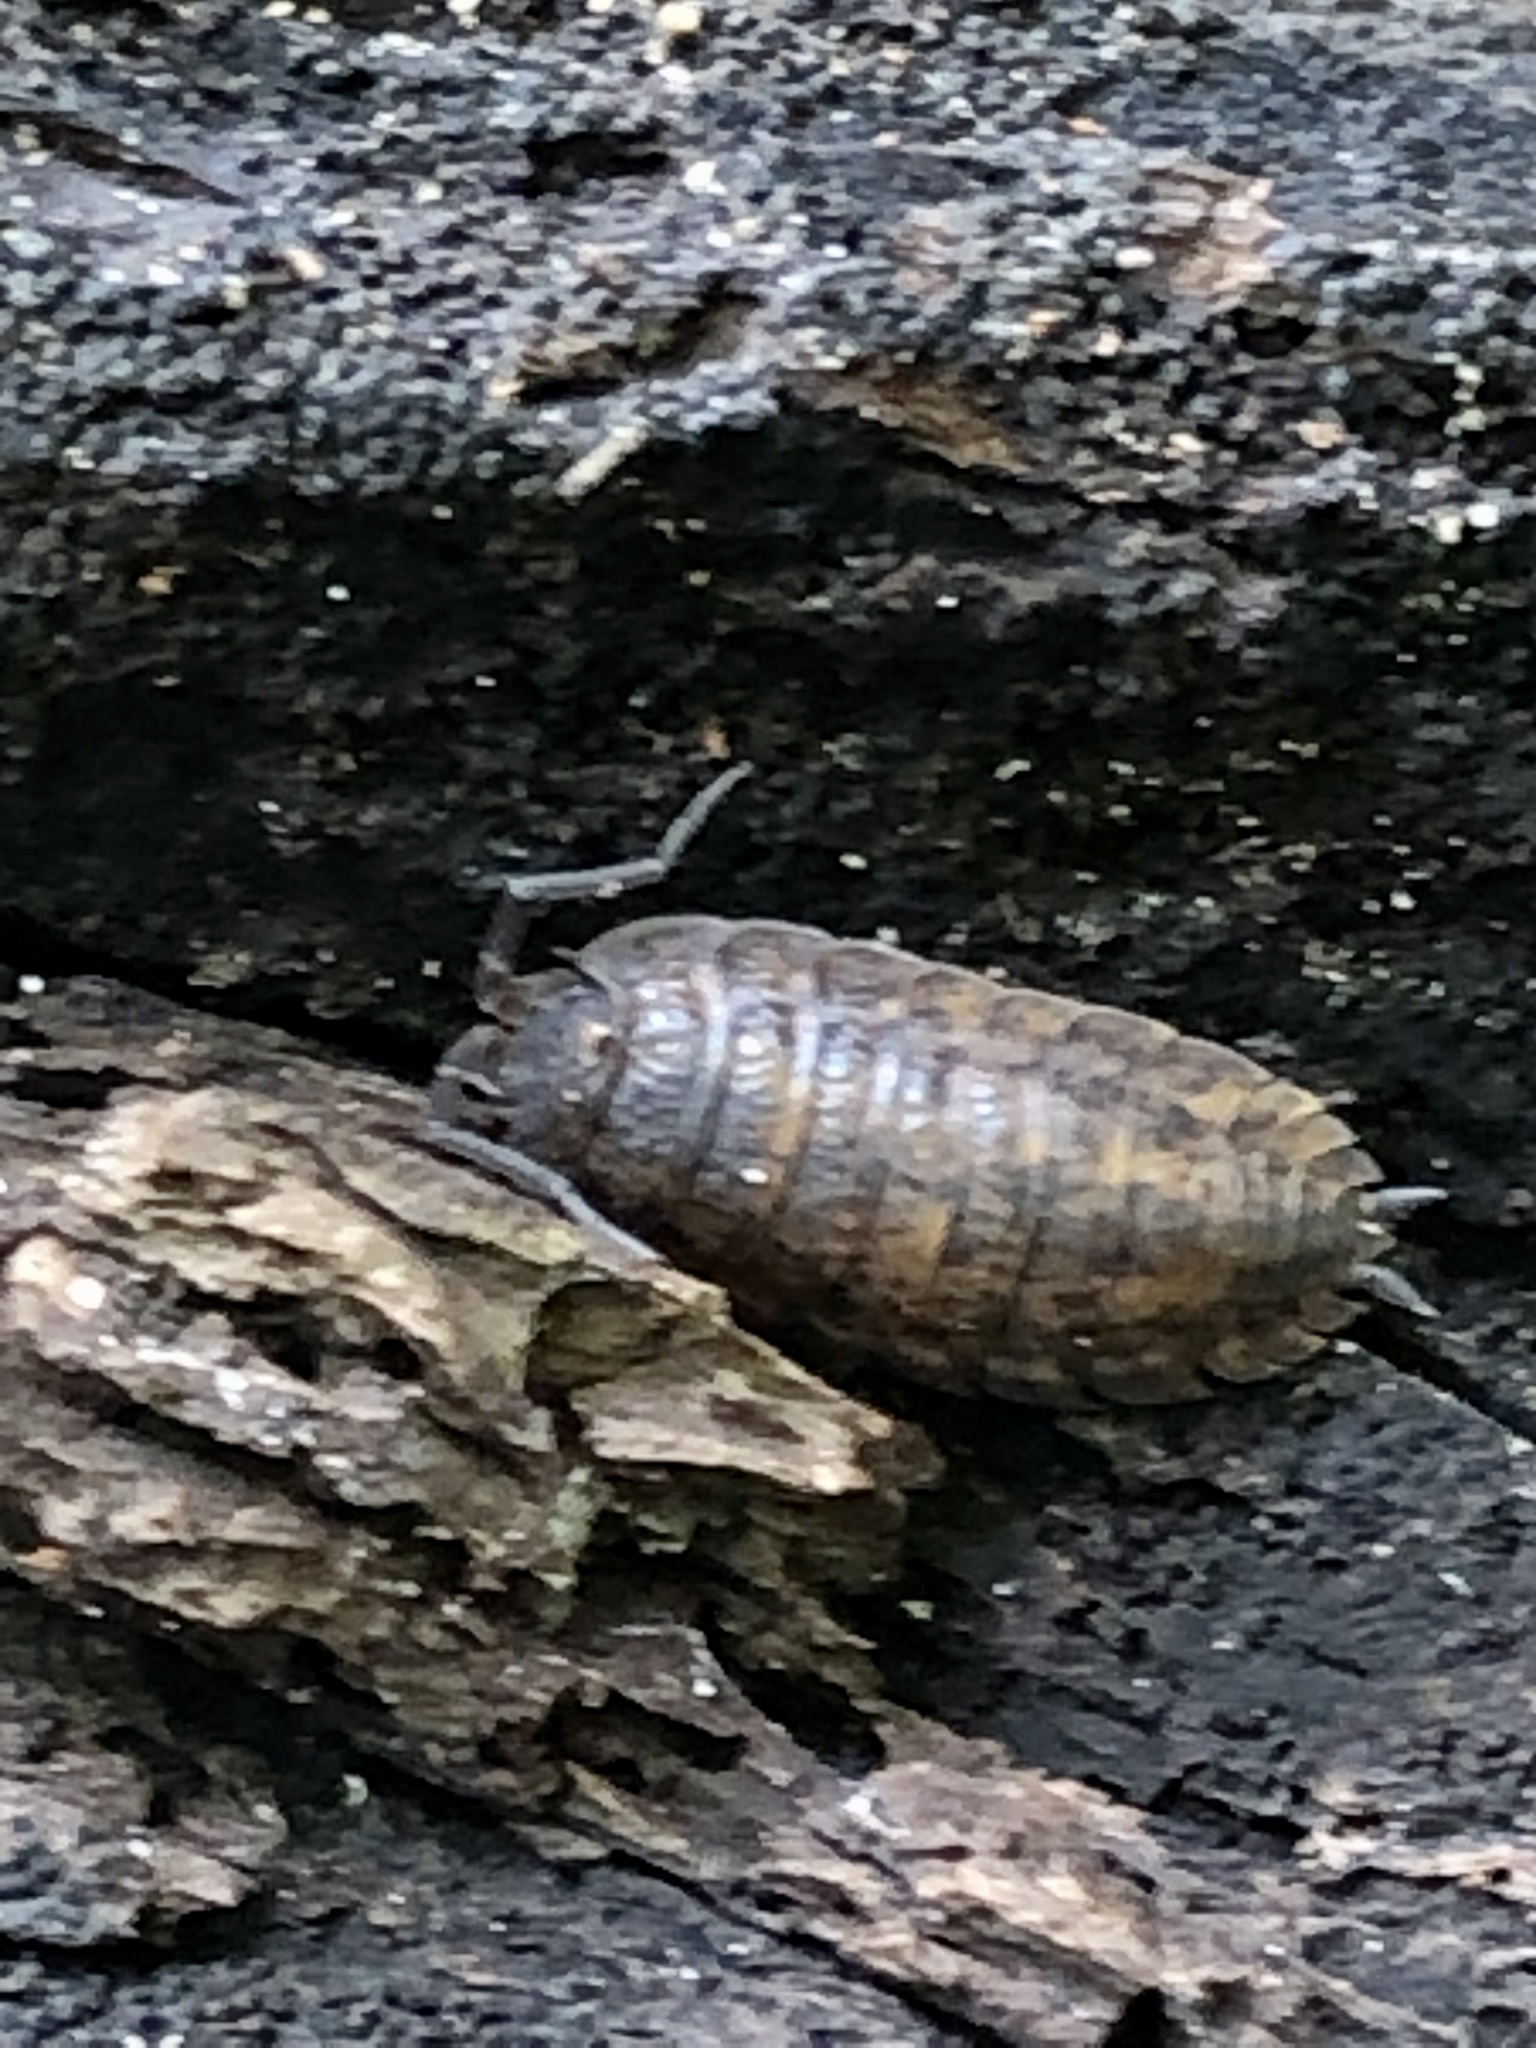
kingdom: Animalia
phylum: Arthropoda
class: Malacostraca
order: Isopoda
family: Trachelipodidae
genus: Trachelipus
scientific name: Trachelipus rathkii
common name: Isopod
